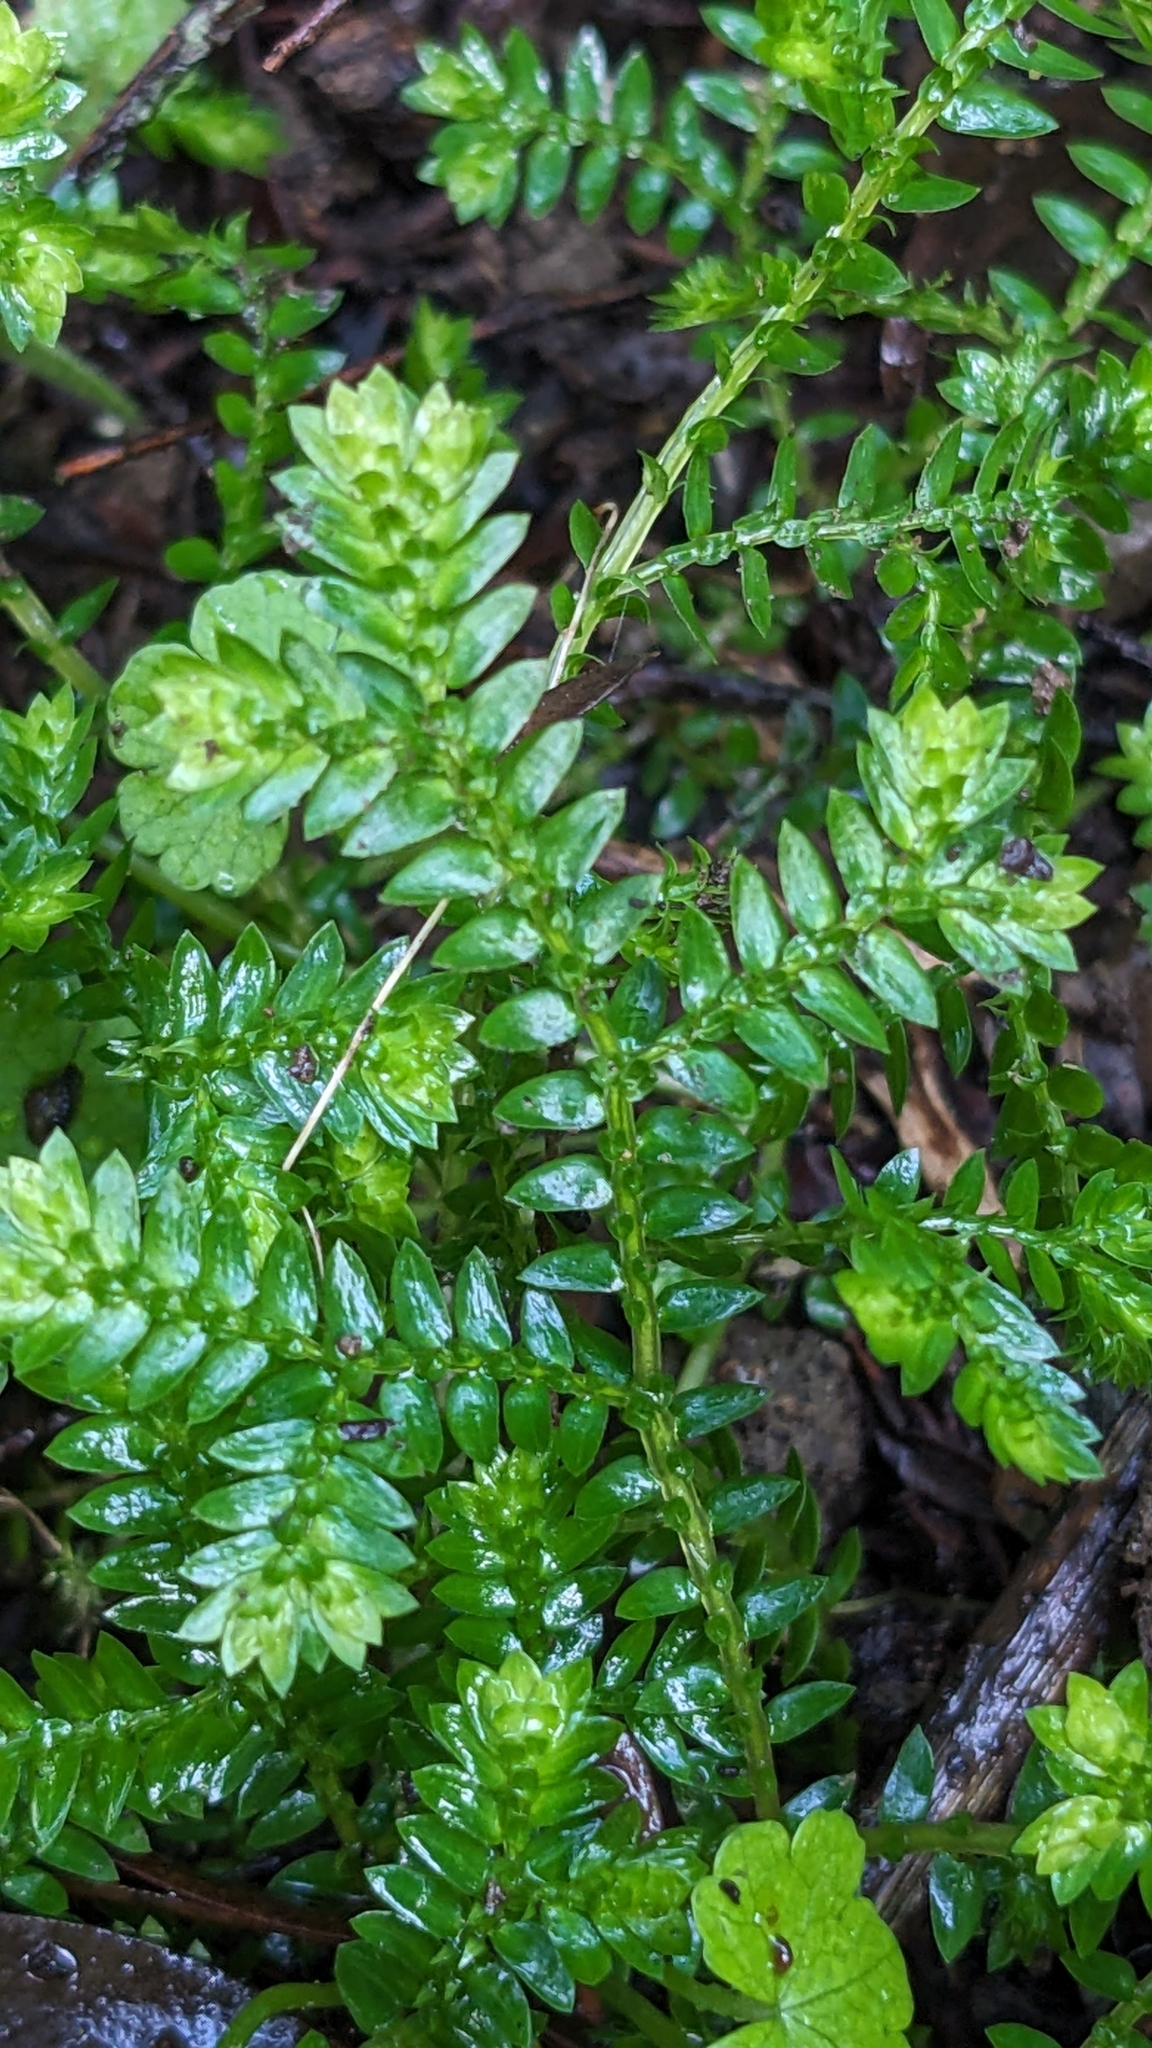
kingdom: Plantae
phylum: Tracheophyta
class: Lycopodiopsida
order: Selaginellales
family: Selaginellaceae
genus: Selaginella
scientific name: Selaginella kraussiana
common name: Krauss' spikemoss
